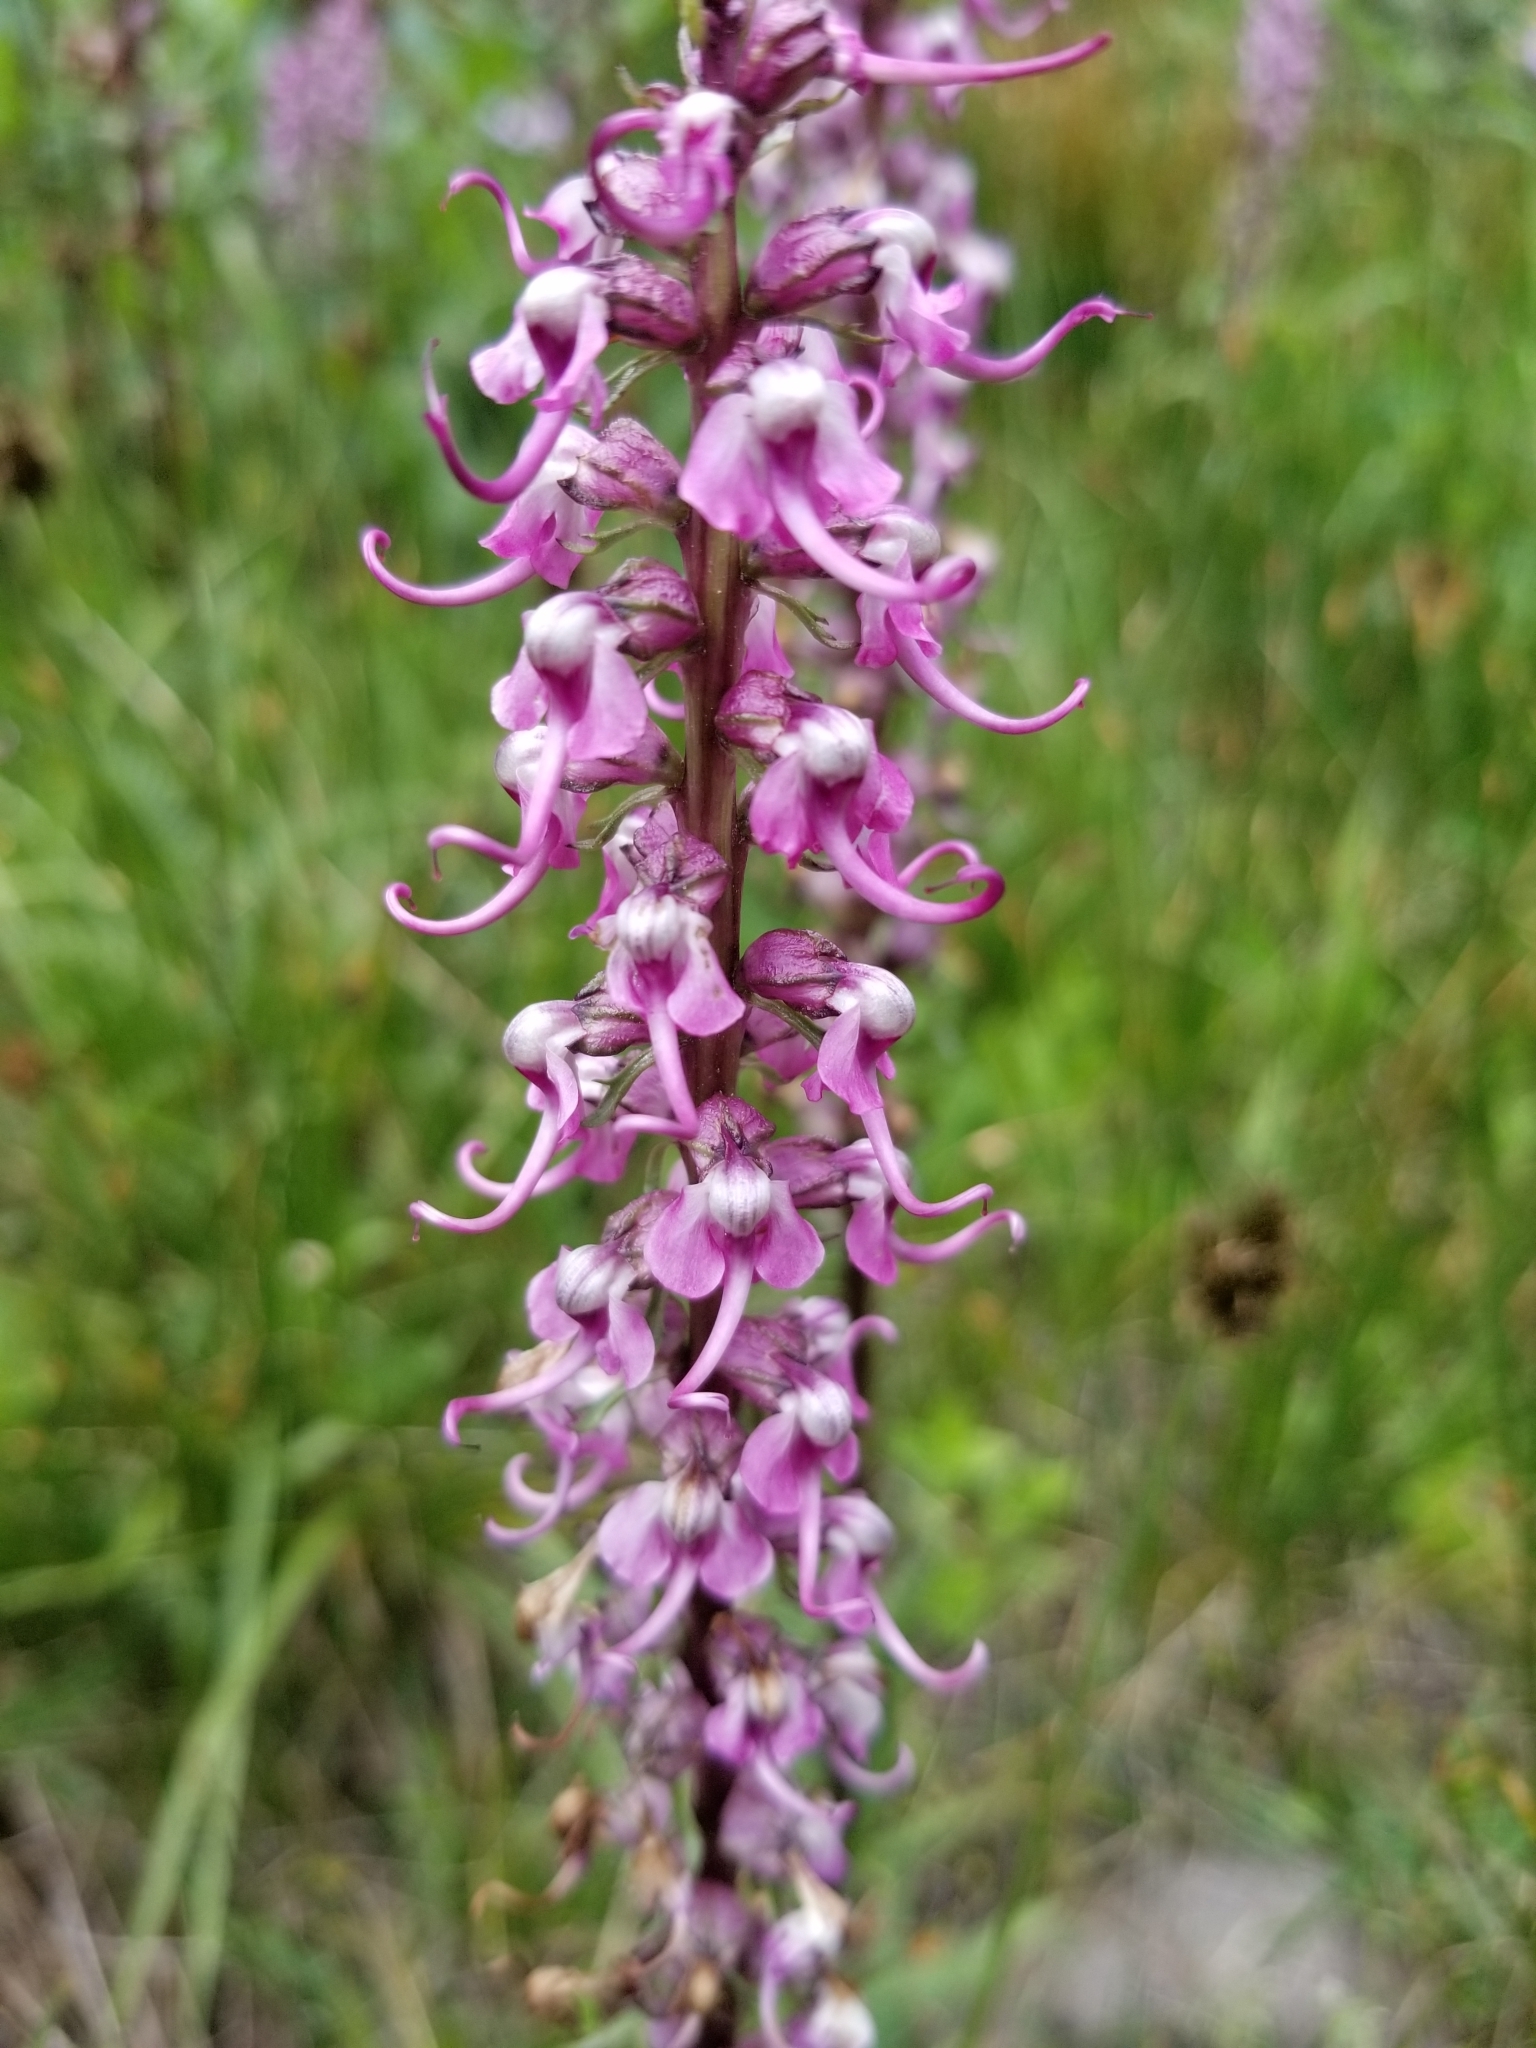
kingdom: Plantae
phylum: Tracheophyta
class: Magnoliopsida
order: Lamiales
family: Orobanchaceae
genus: Pedicularis
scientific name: Pedicularis groenlandica
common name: Elephant's-head
